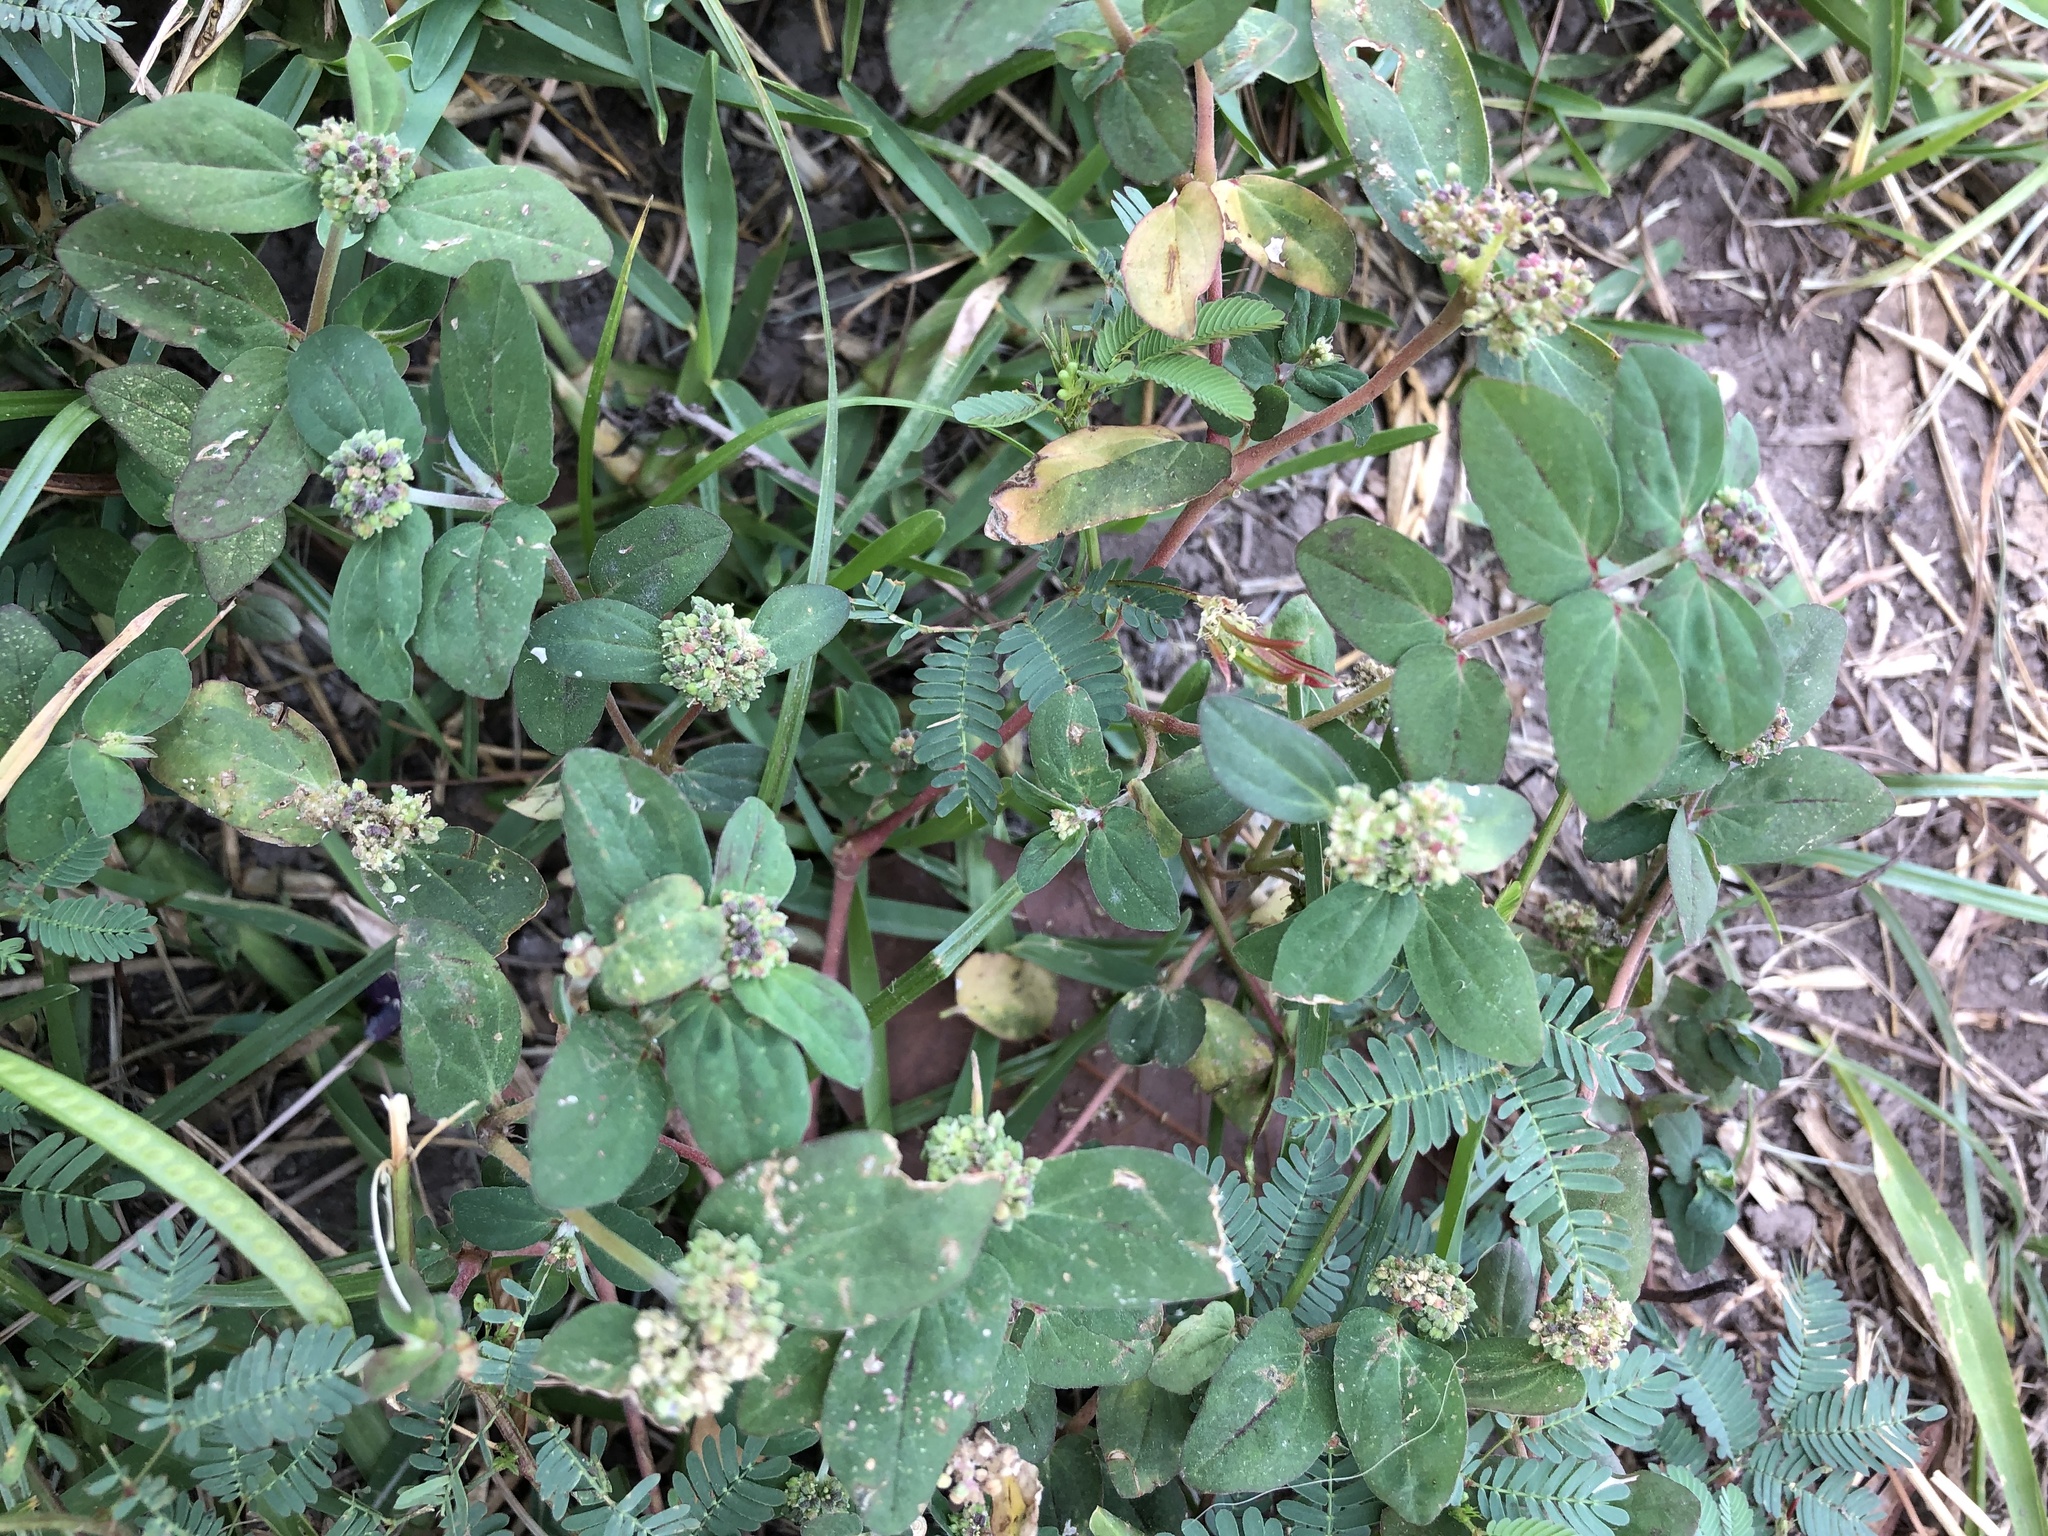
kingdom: Plantae
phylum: Tracheophyta
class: Magnoliopsida
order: Malpighiales
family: Euphorbiaceae
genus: Euphorbia
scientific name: Euphorbia ophthalmica
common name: Florida hammock sandmat
